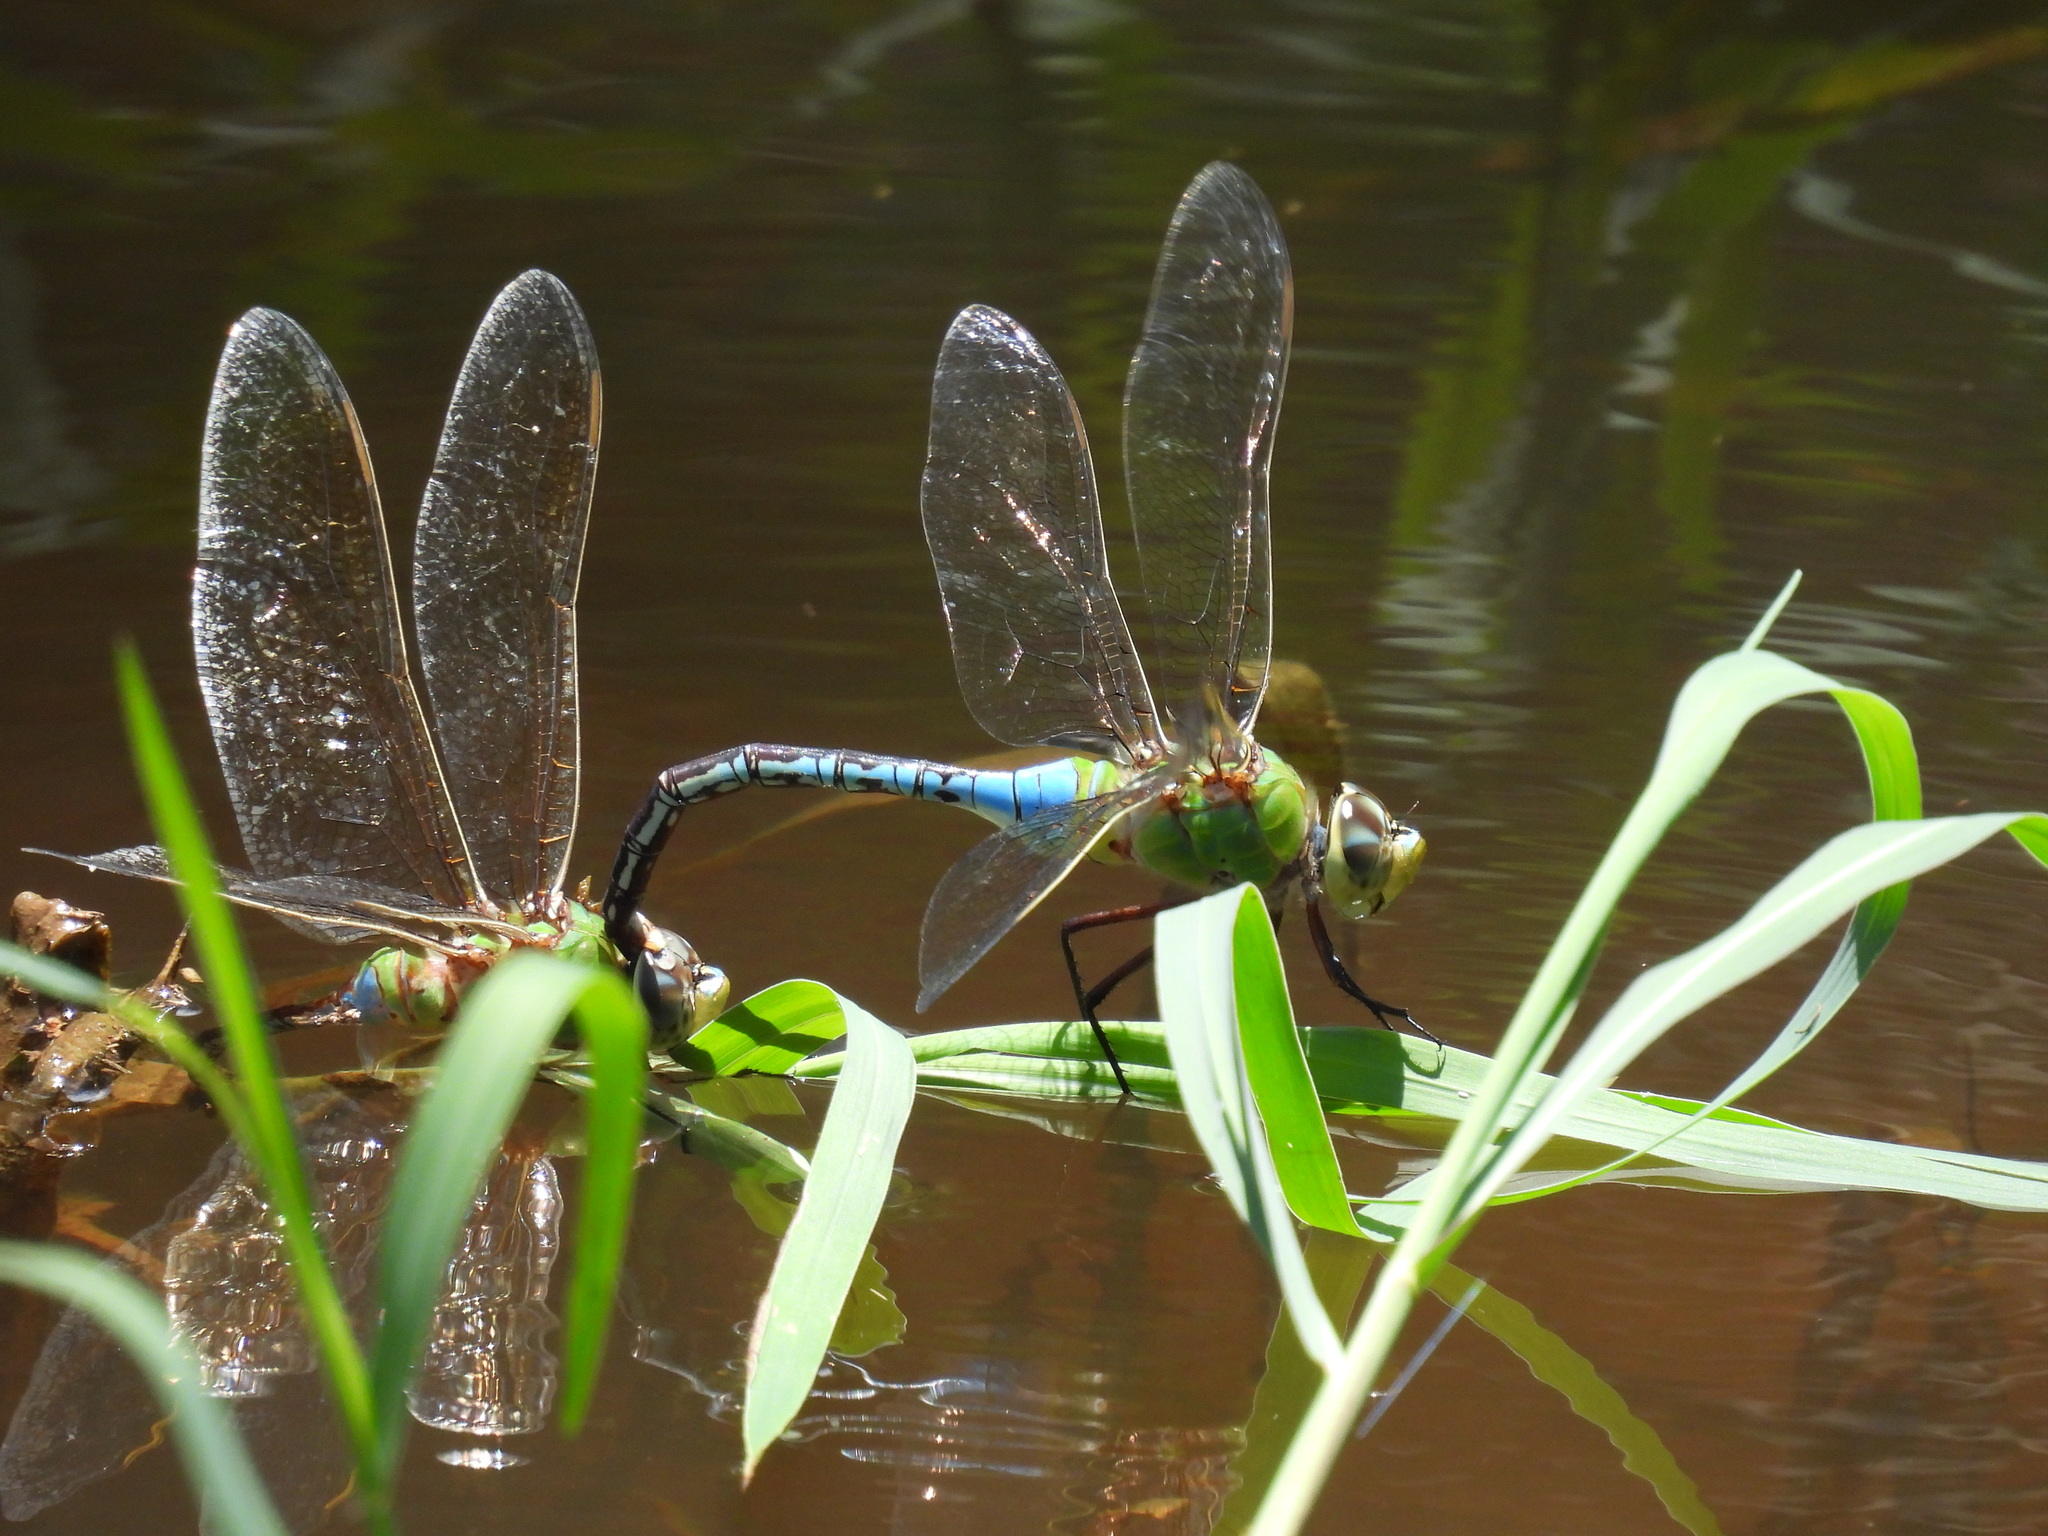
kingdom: Animalia
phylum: Arthropoda
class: Insecta
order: Odonata
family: Aeshnidae
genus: Anax
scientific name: Anax junius
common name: Common green darner
